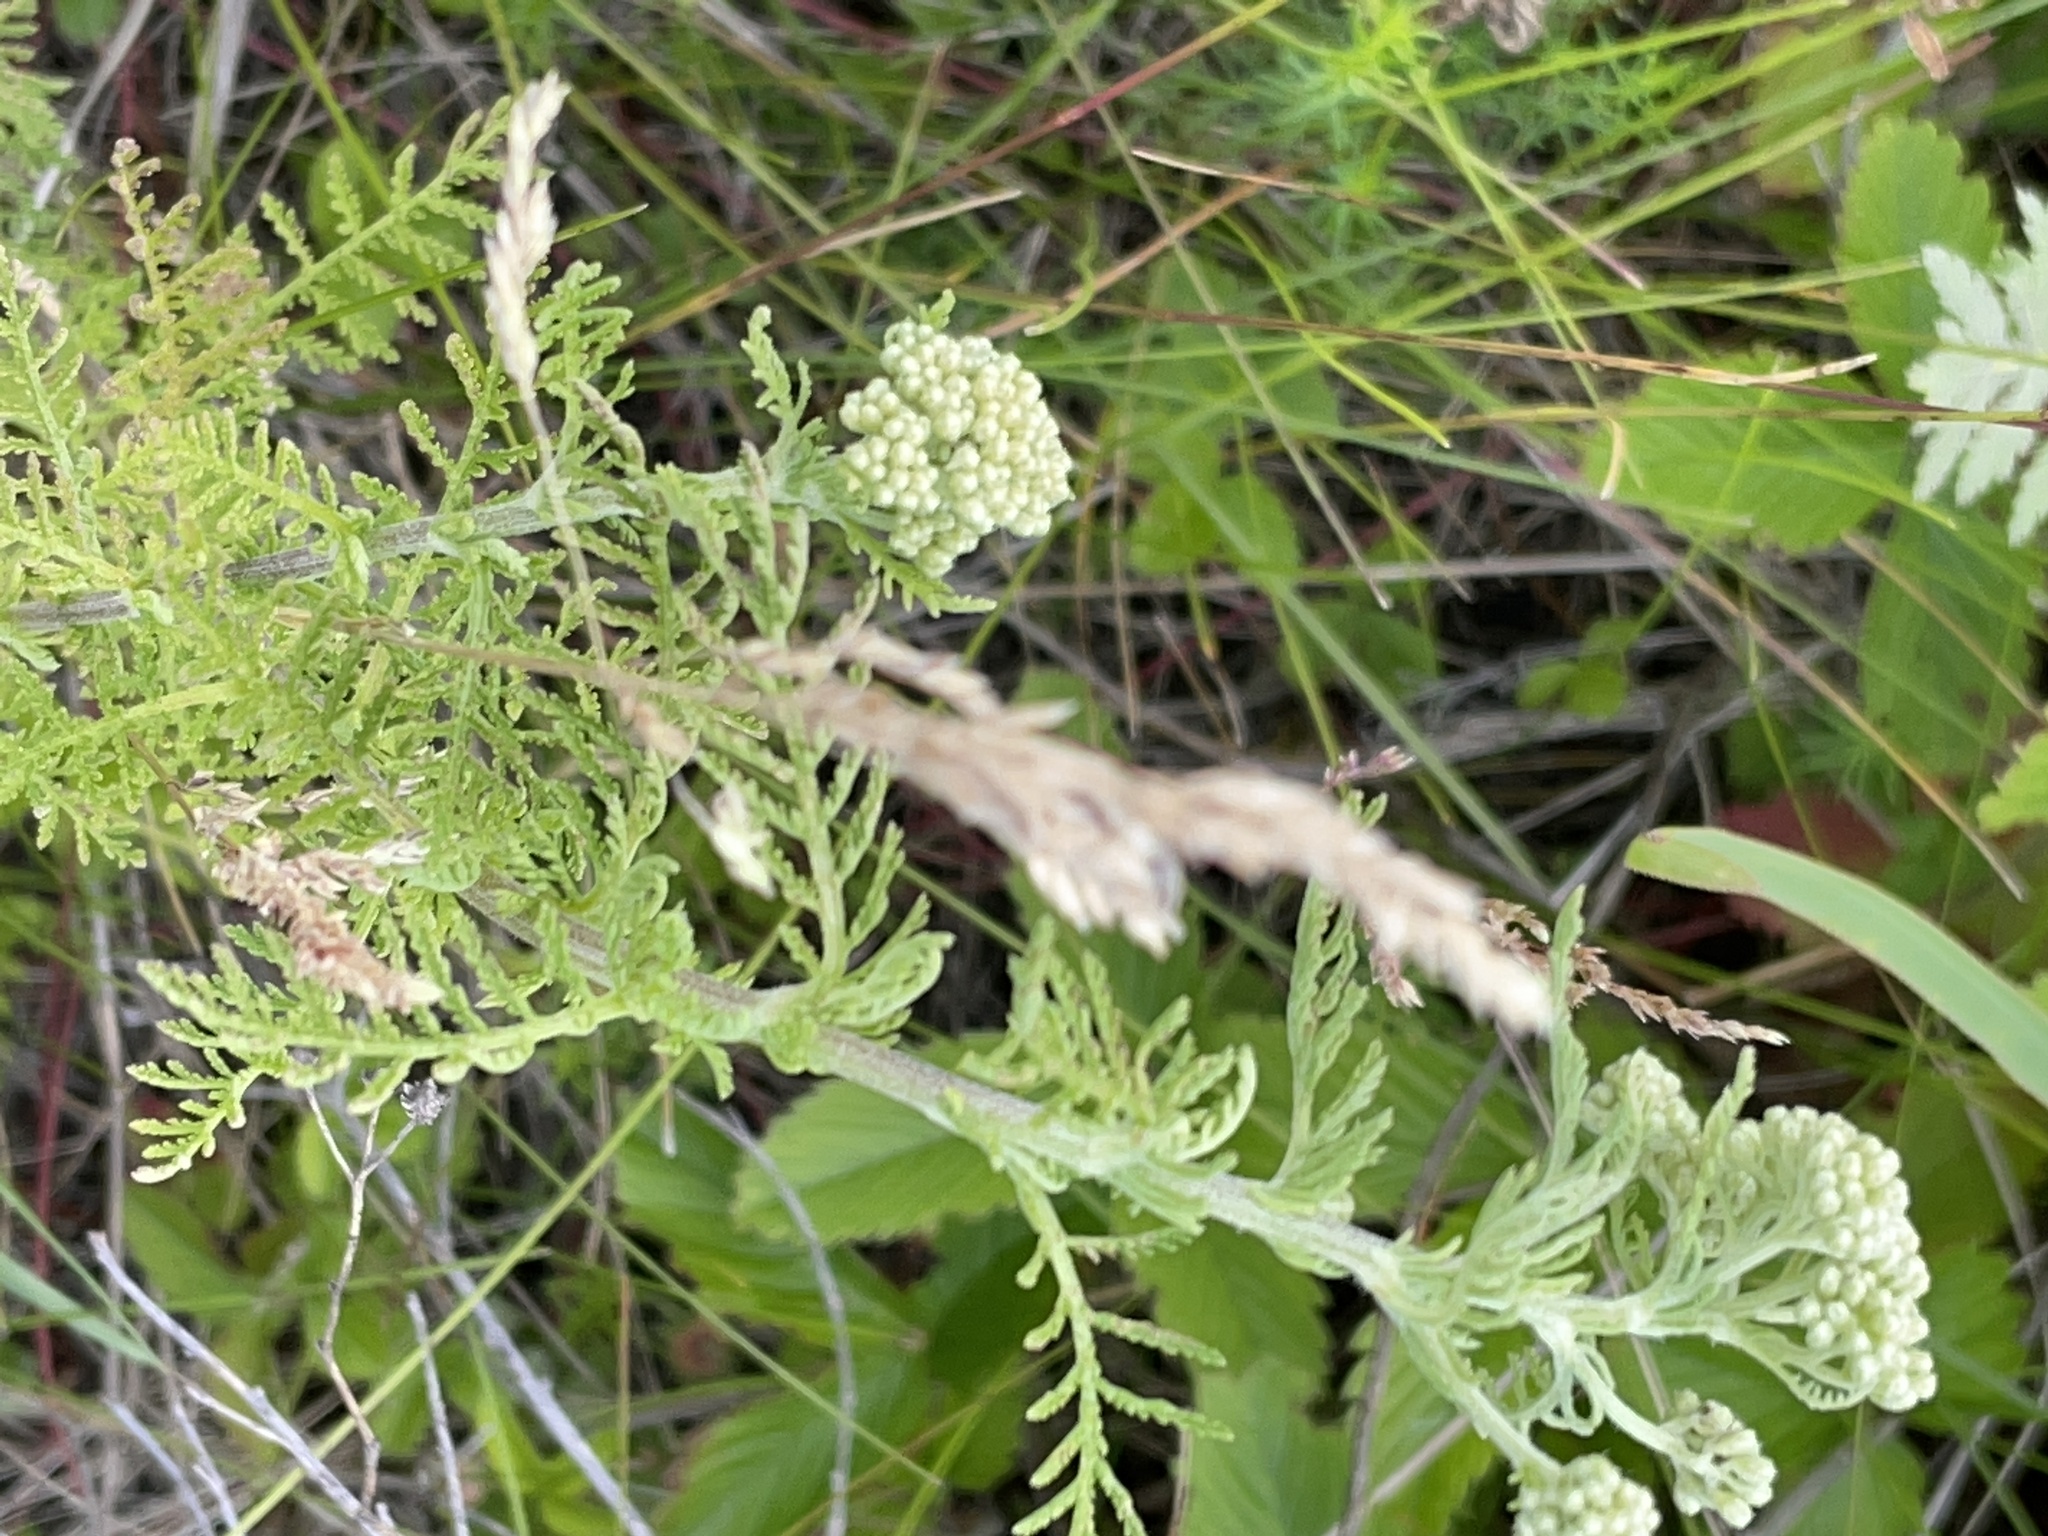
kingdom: Plantae
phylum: Tracheophyta
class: Magnoliopsida
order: Asterales
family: Asteraceae
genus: Achillea
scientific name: Achillea nobilis
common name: Noble yarrow
